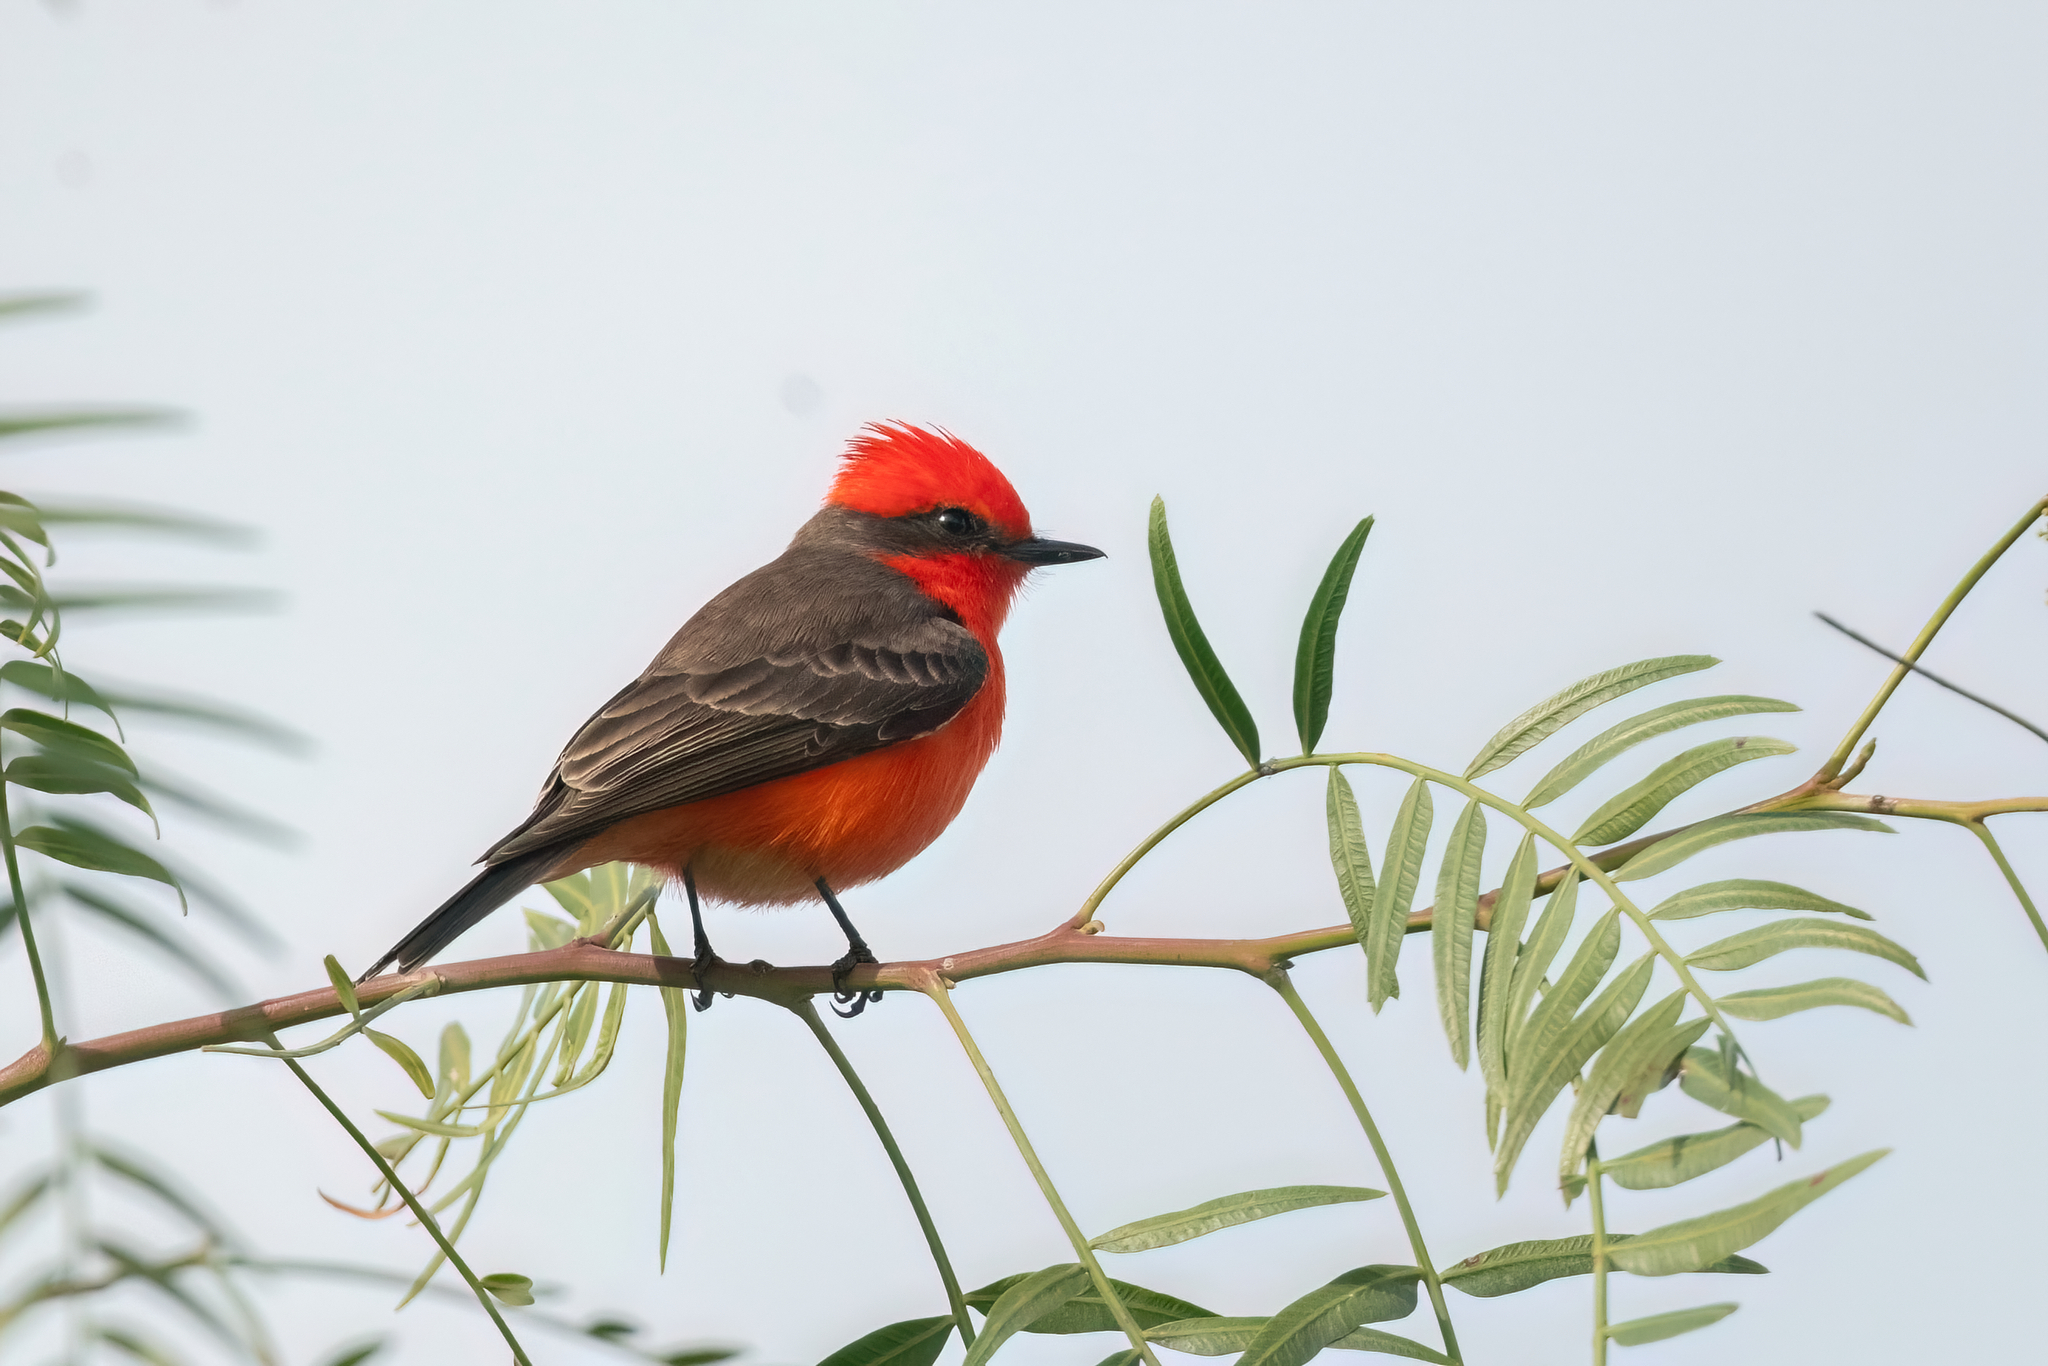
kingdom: Animalia
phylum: Chordata
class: Aves
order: Passeriformes
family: Tyrannidae
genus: Pyrocephalus
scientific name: Pyrocephalus rubinus
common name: Vermilion flycatcher
